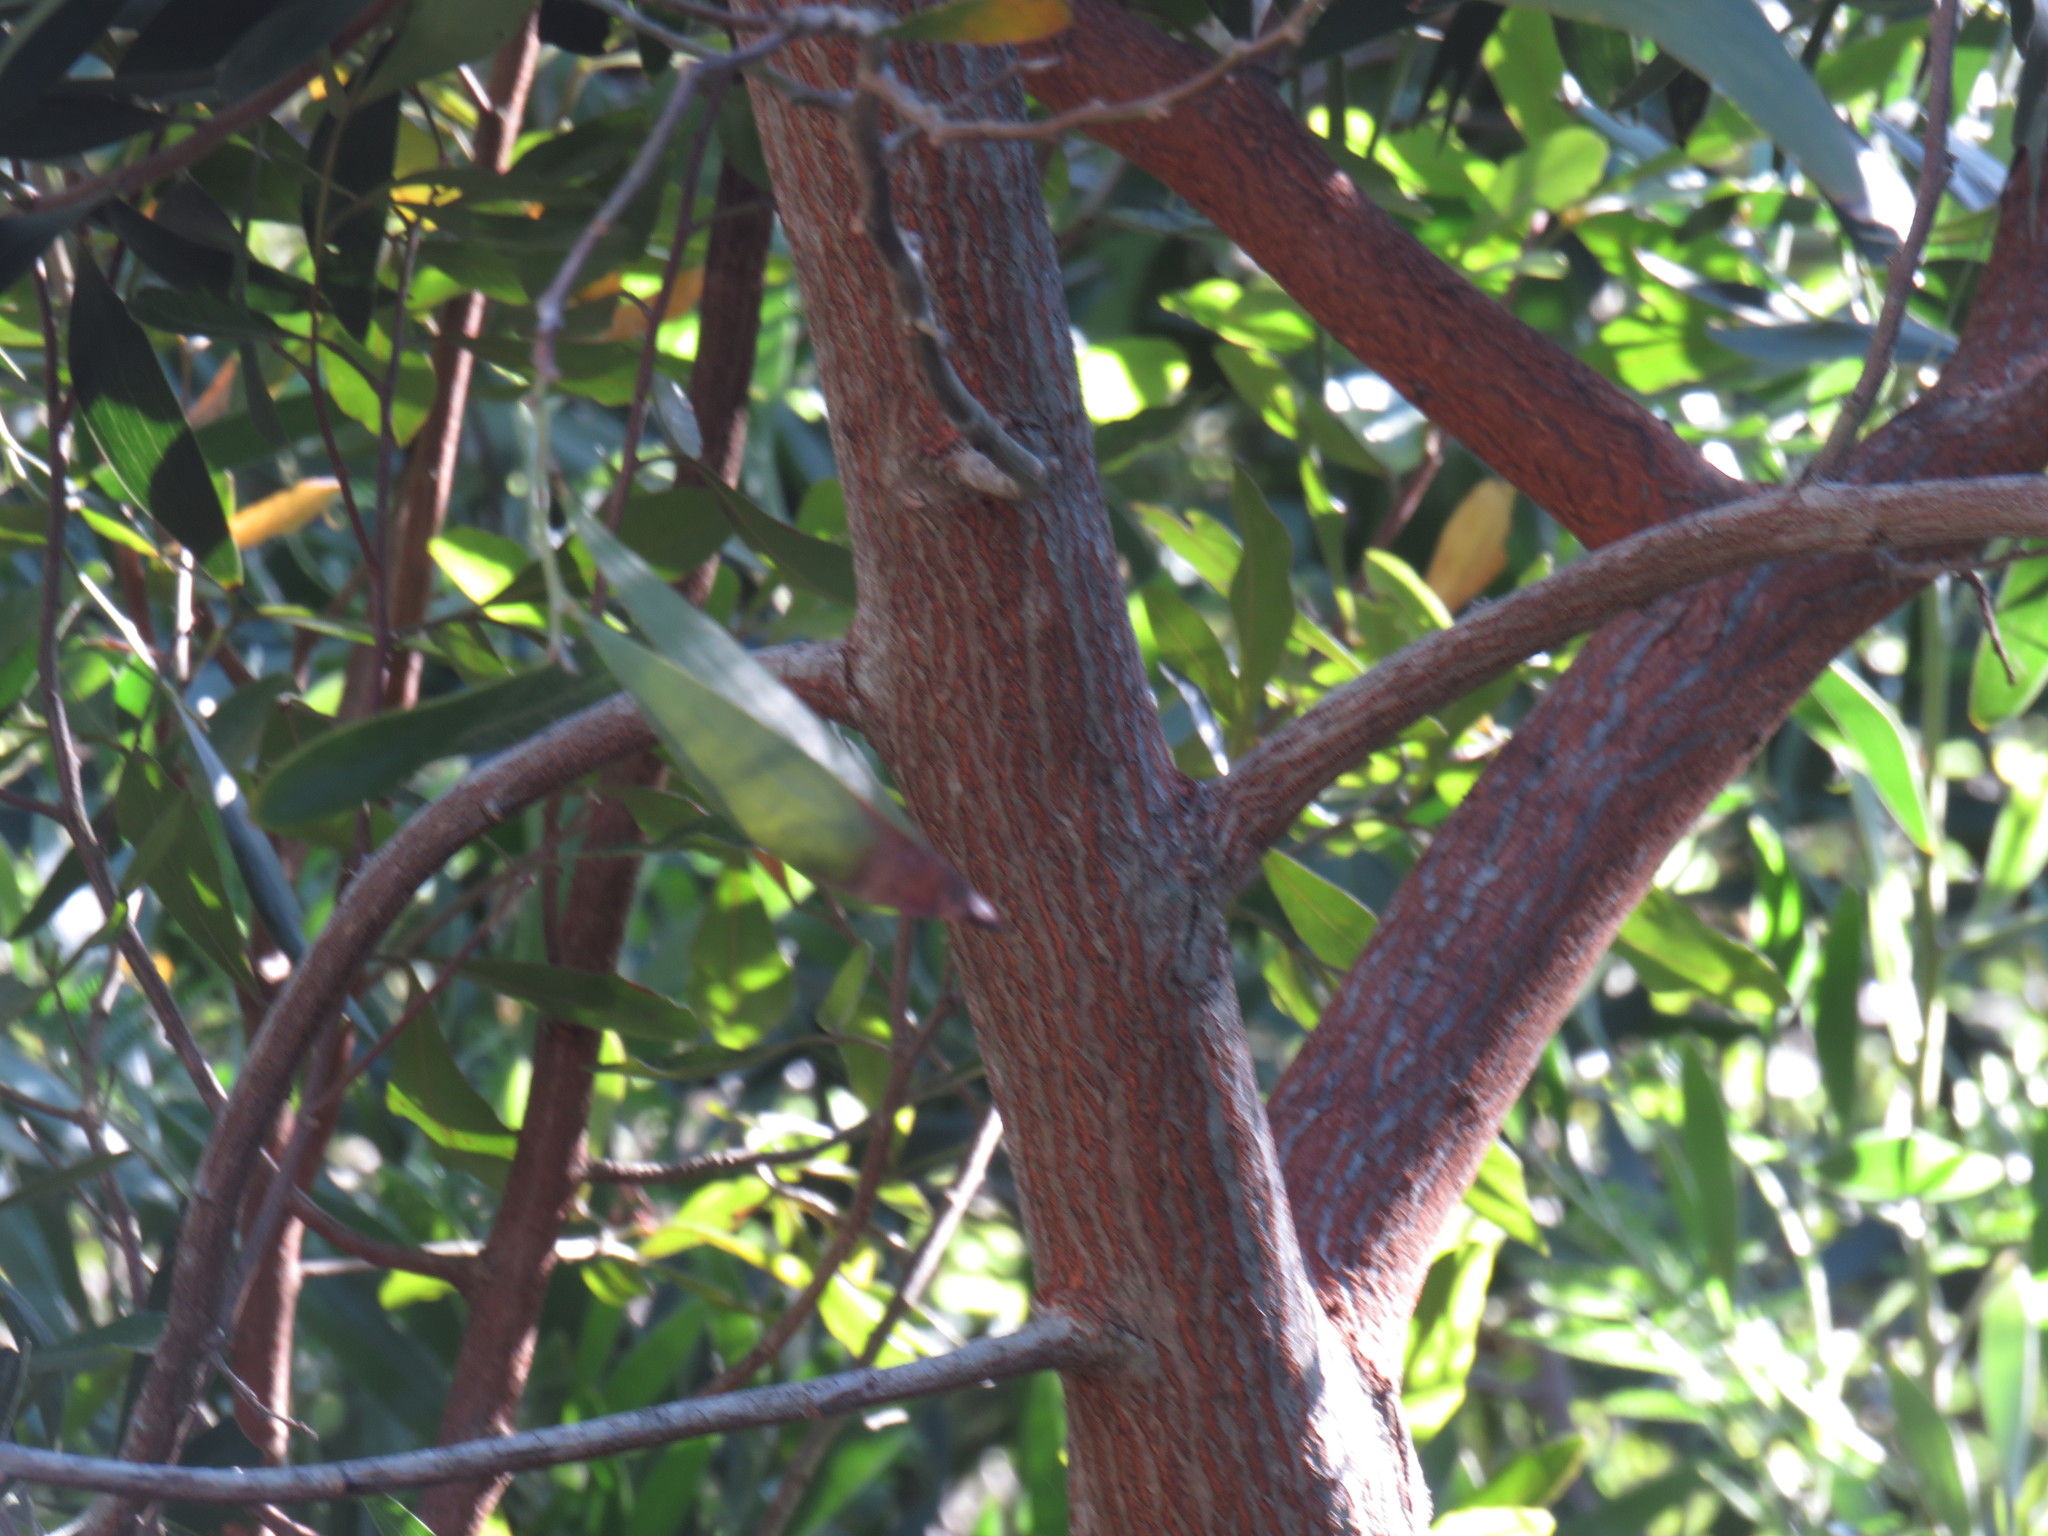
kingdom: Plantae
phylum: Tracheophyta
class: Magnoliopsida
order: Fabales
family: Fabaceae
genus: Acacia
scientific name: Acacia melanoxylon
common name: Blackwood
